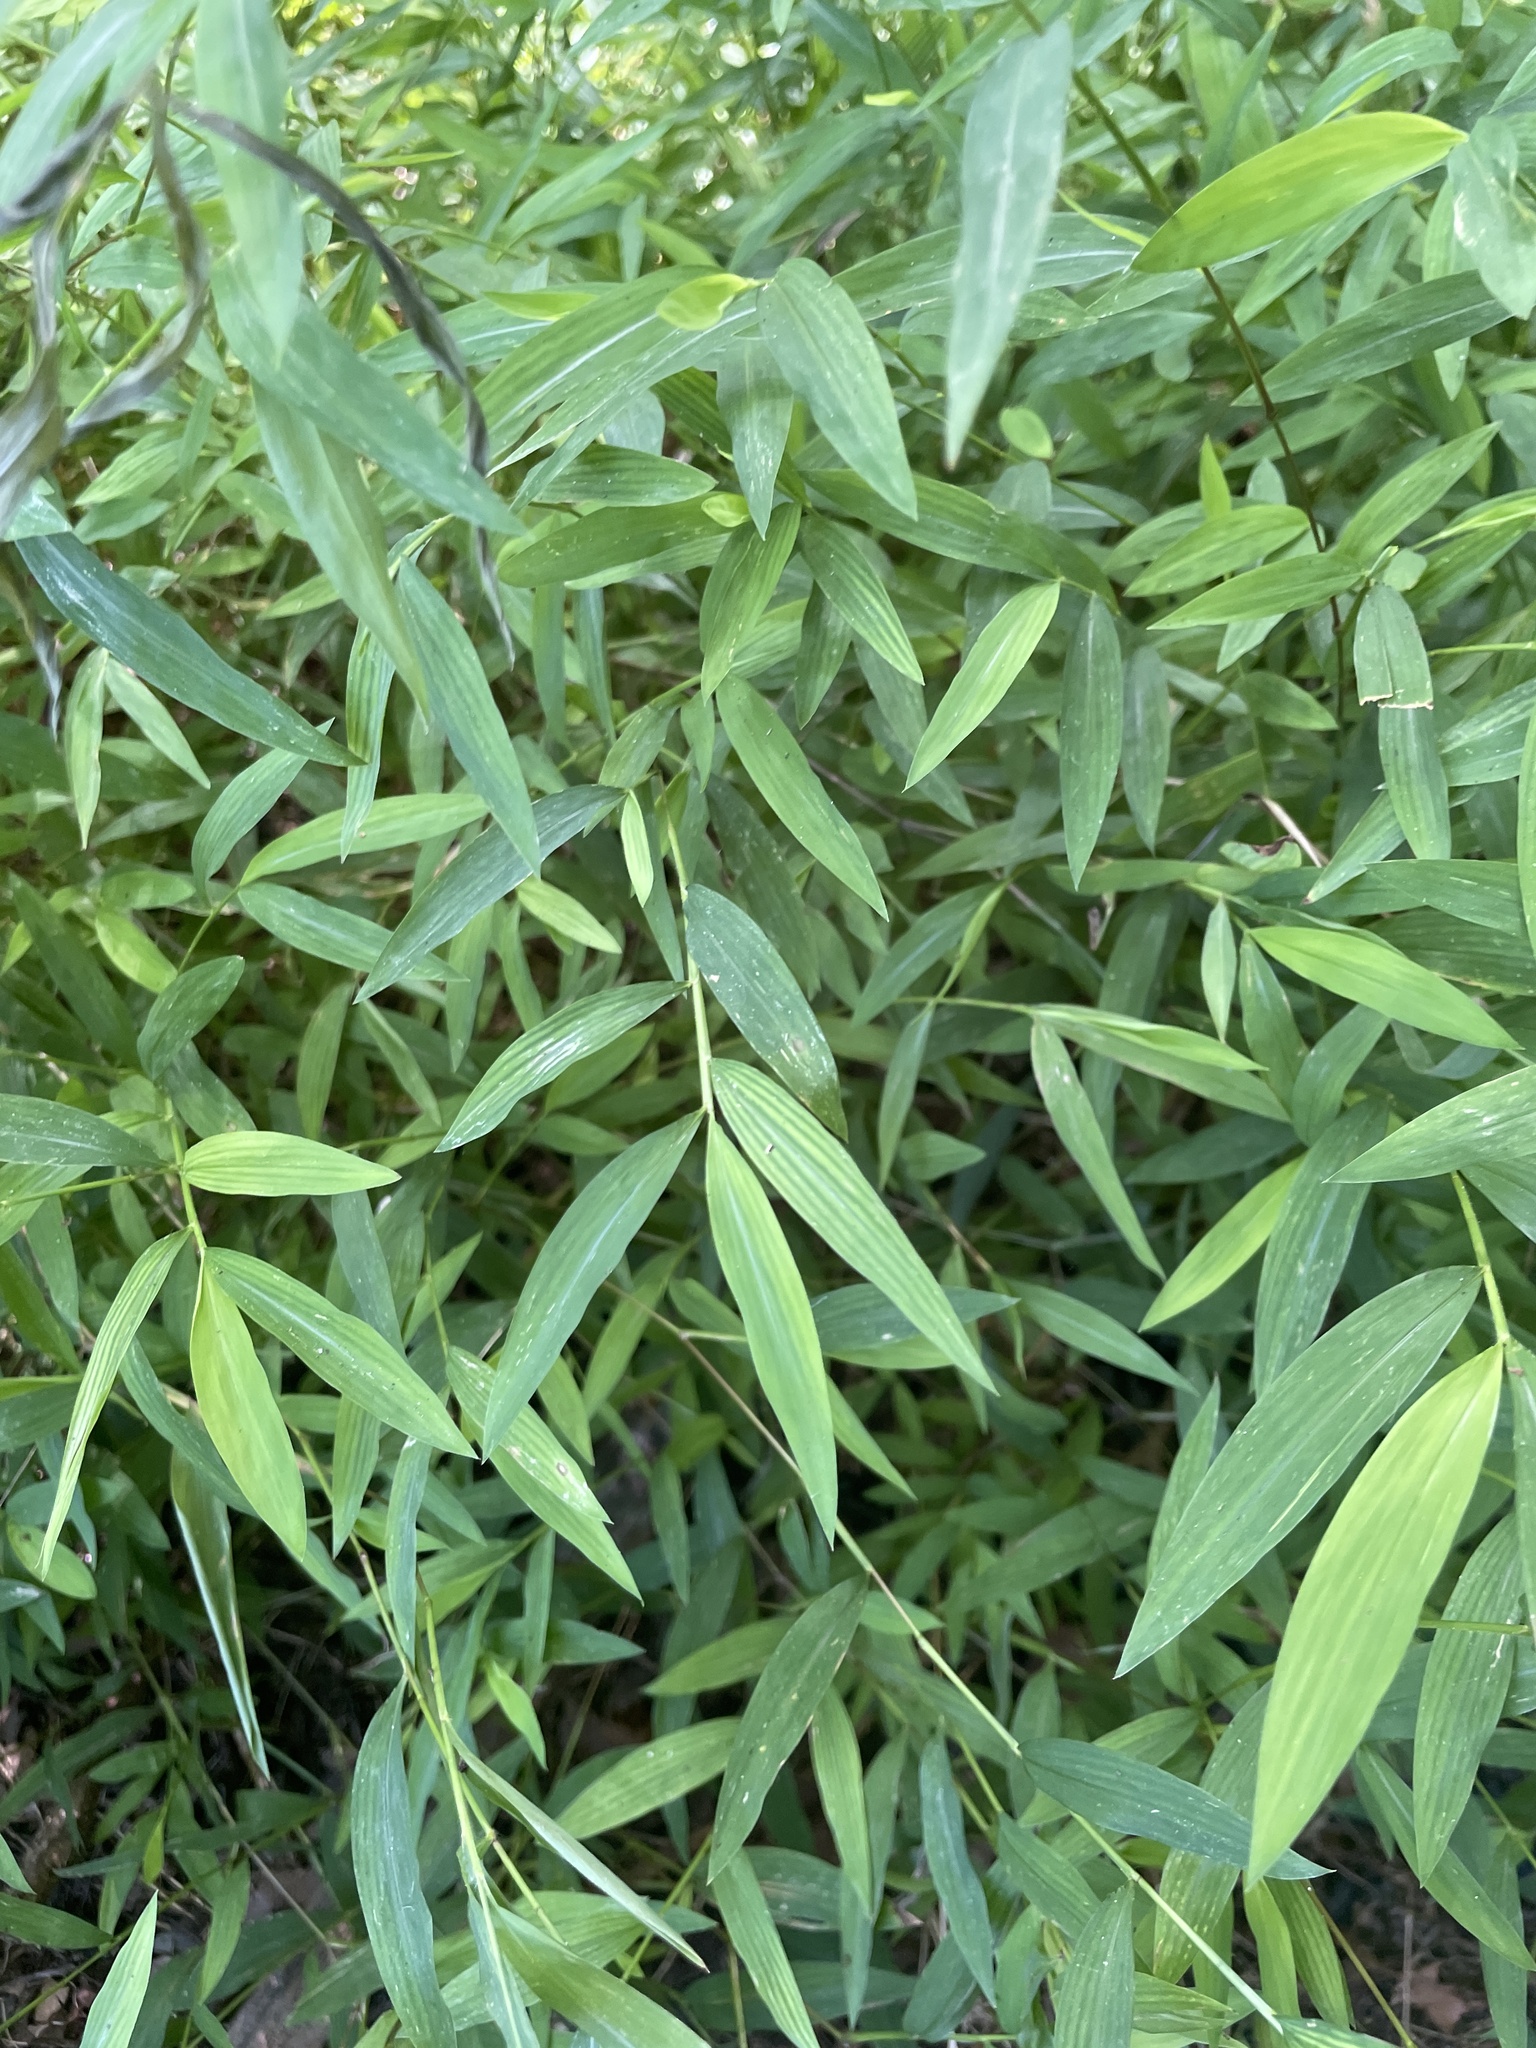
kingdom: Plantae
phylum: Tracheophyta
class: Liliopsida
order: Poales
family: Poaceae
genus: Microstegium
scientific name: Microstegium vimineum
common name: Japanese stiltgrass
